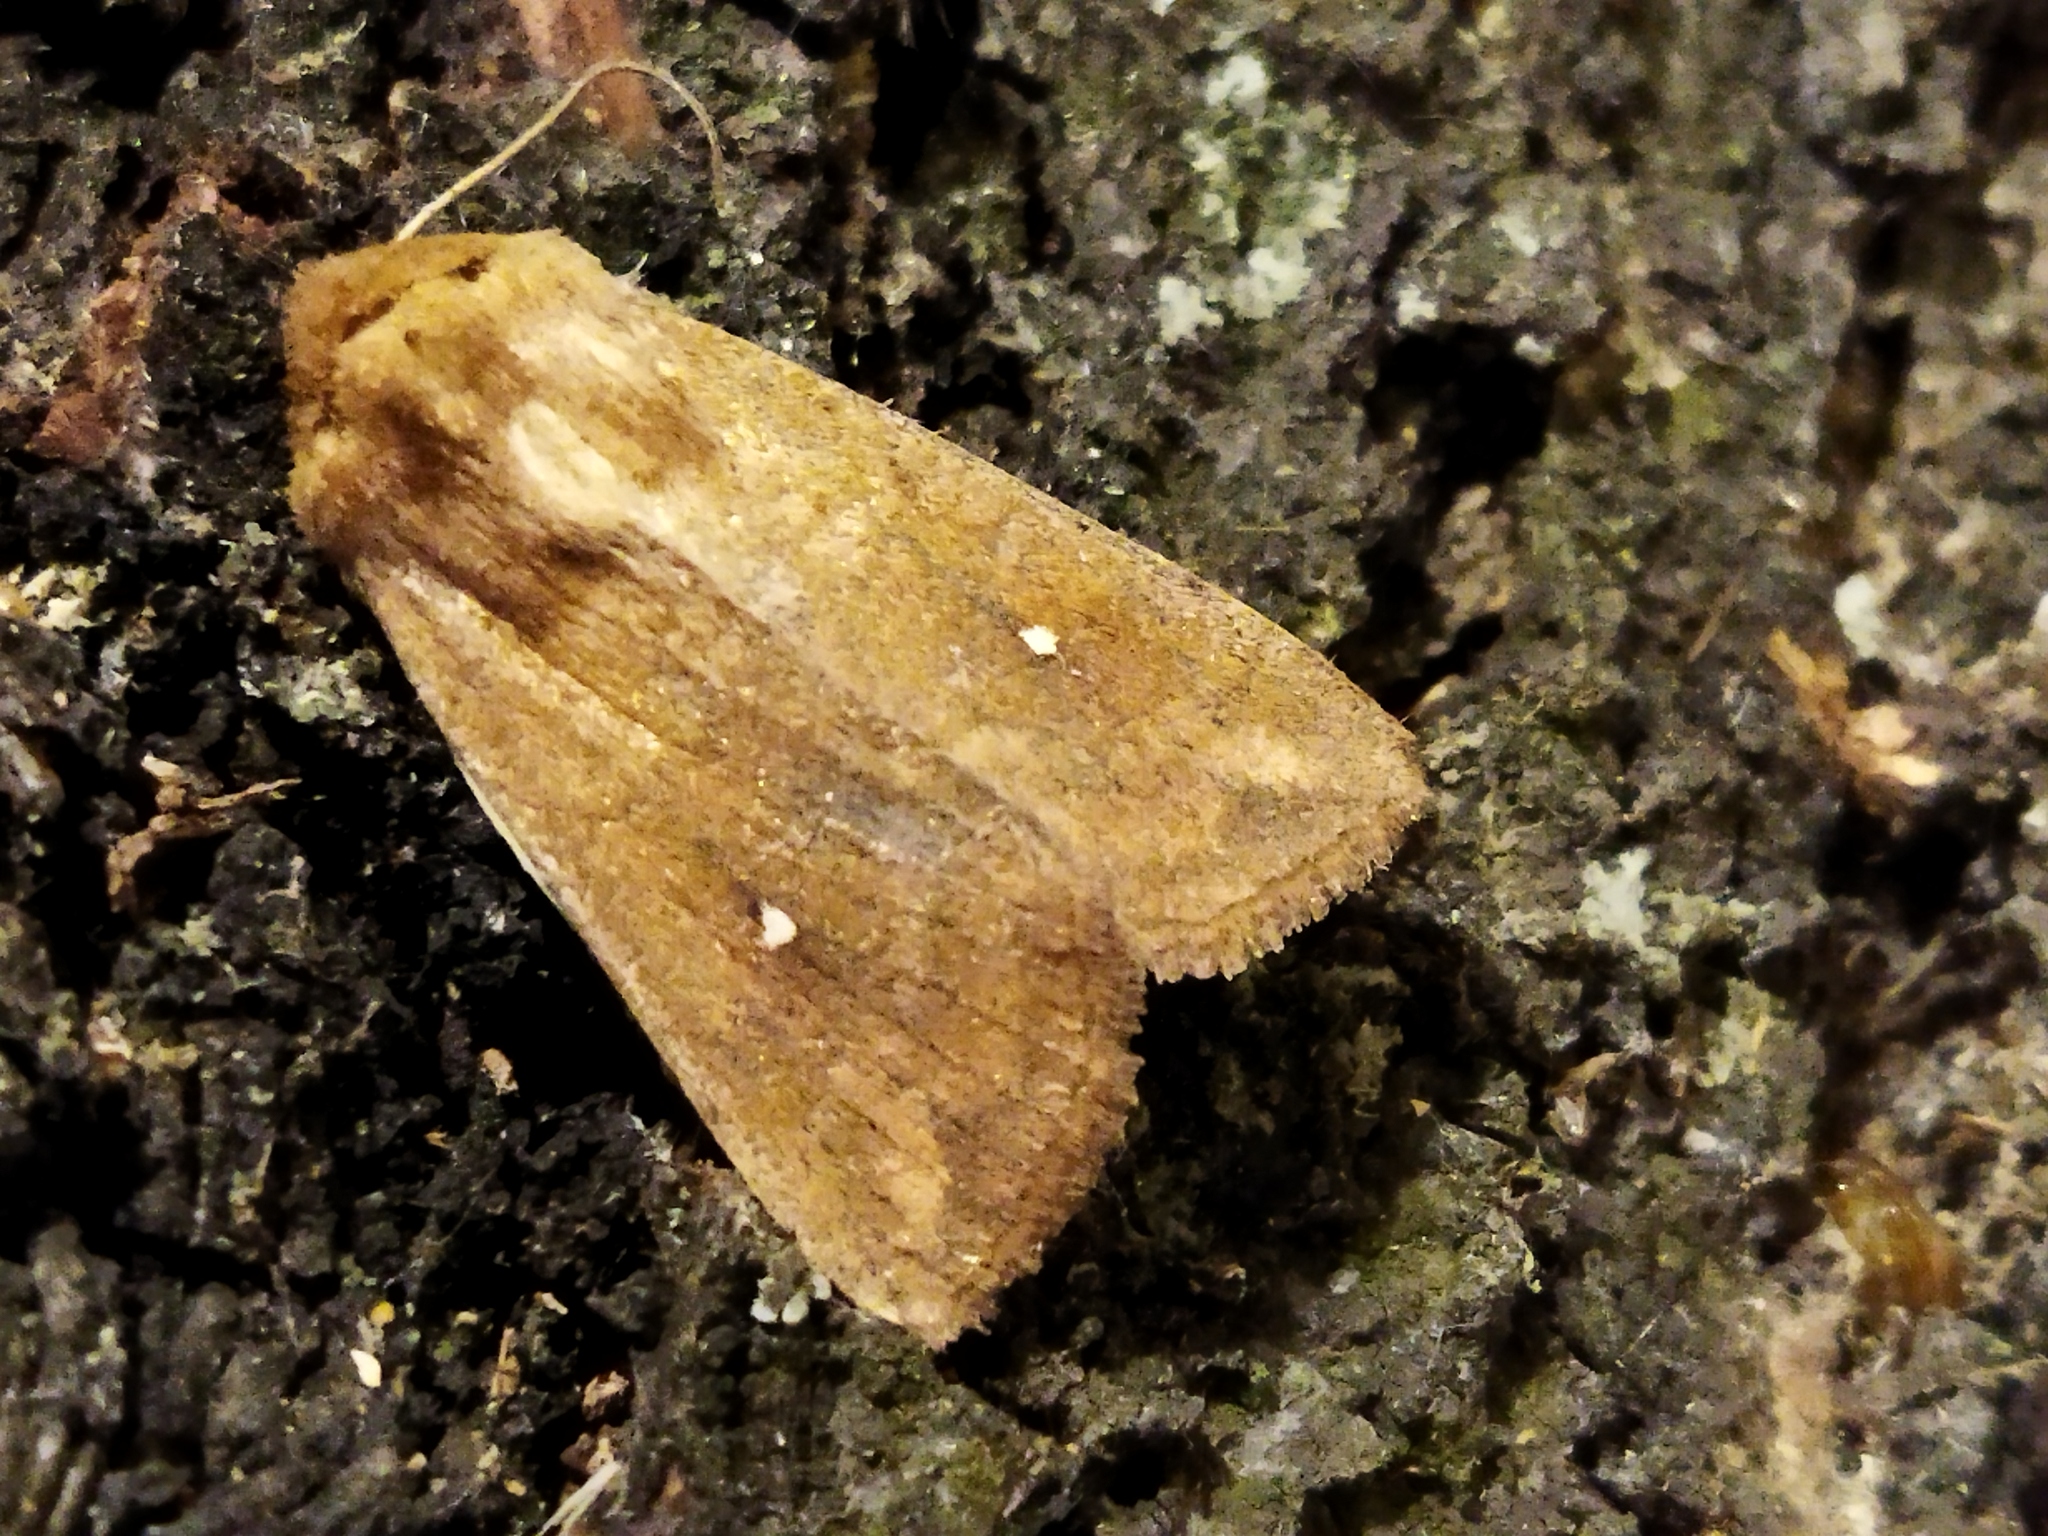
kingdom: Animalia
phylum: Arthropoda
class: Insecta
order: Lepidoptera
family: Noctuidae
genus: Mythimna
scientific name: Mythimna albipuncta
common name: White-point
